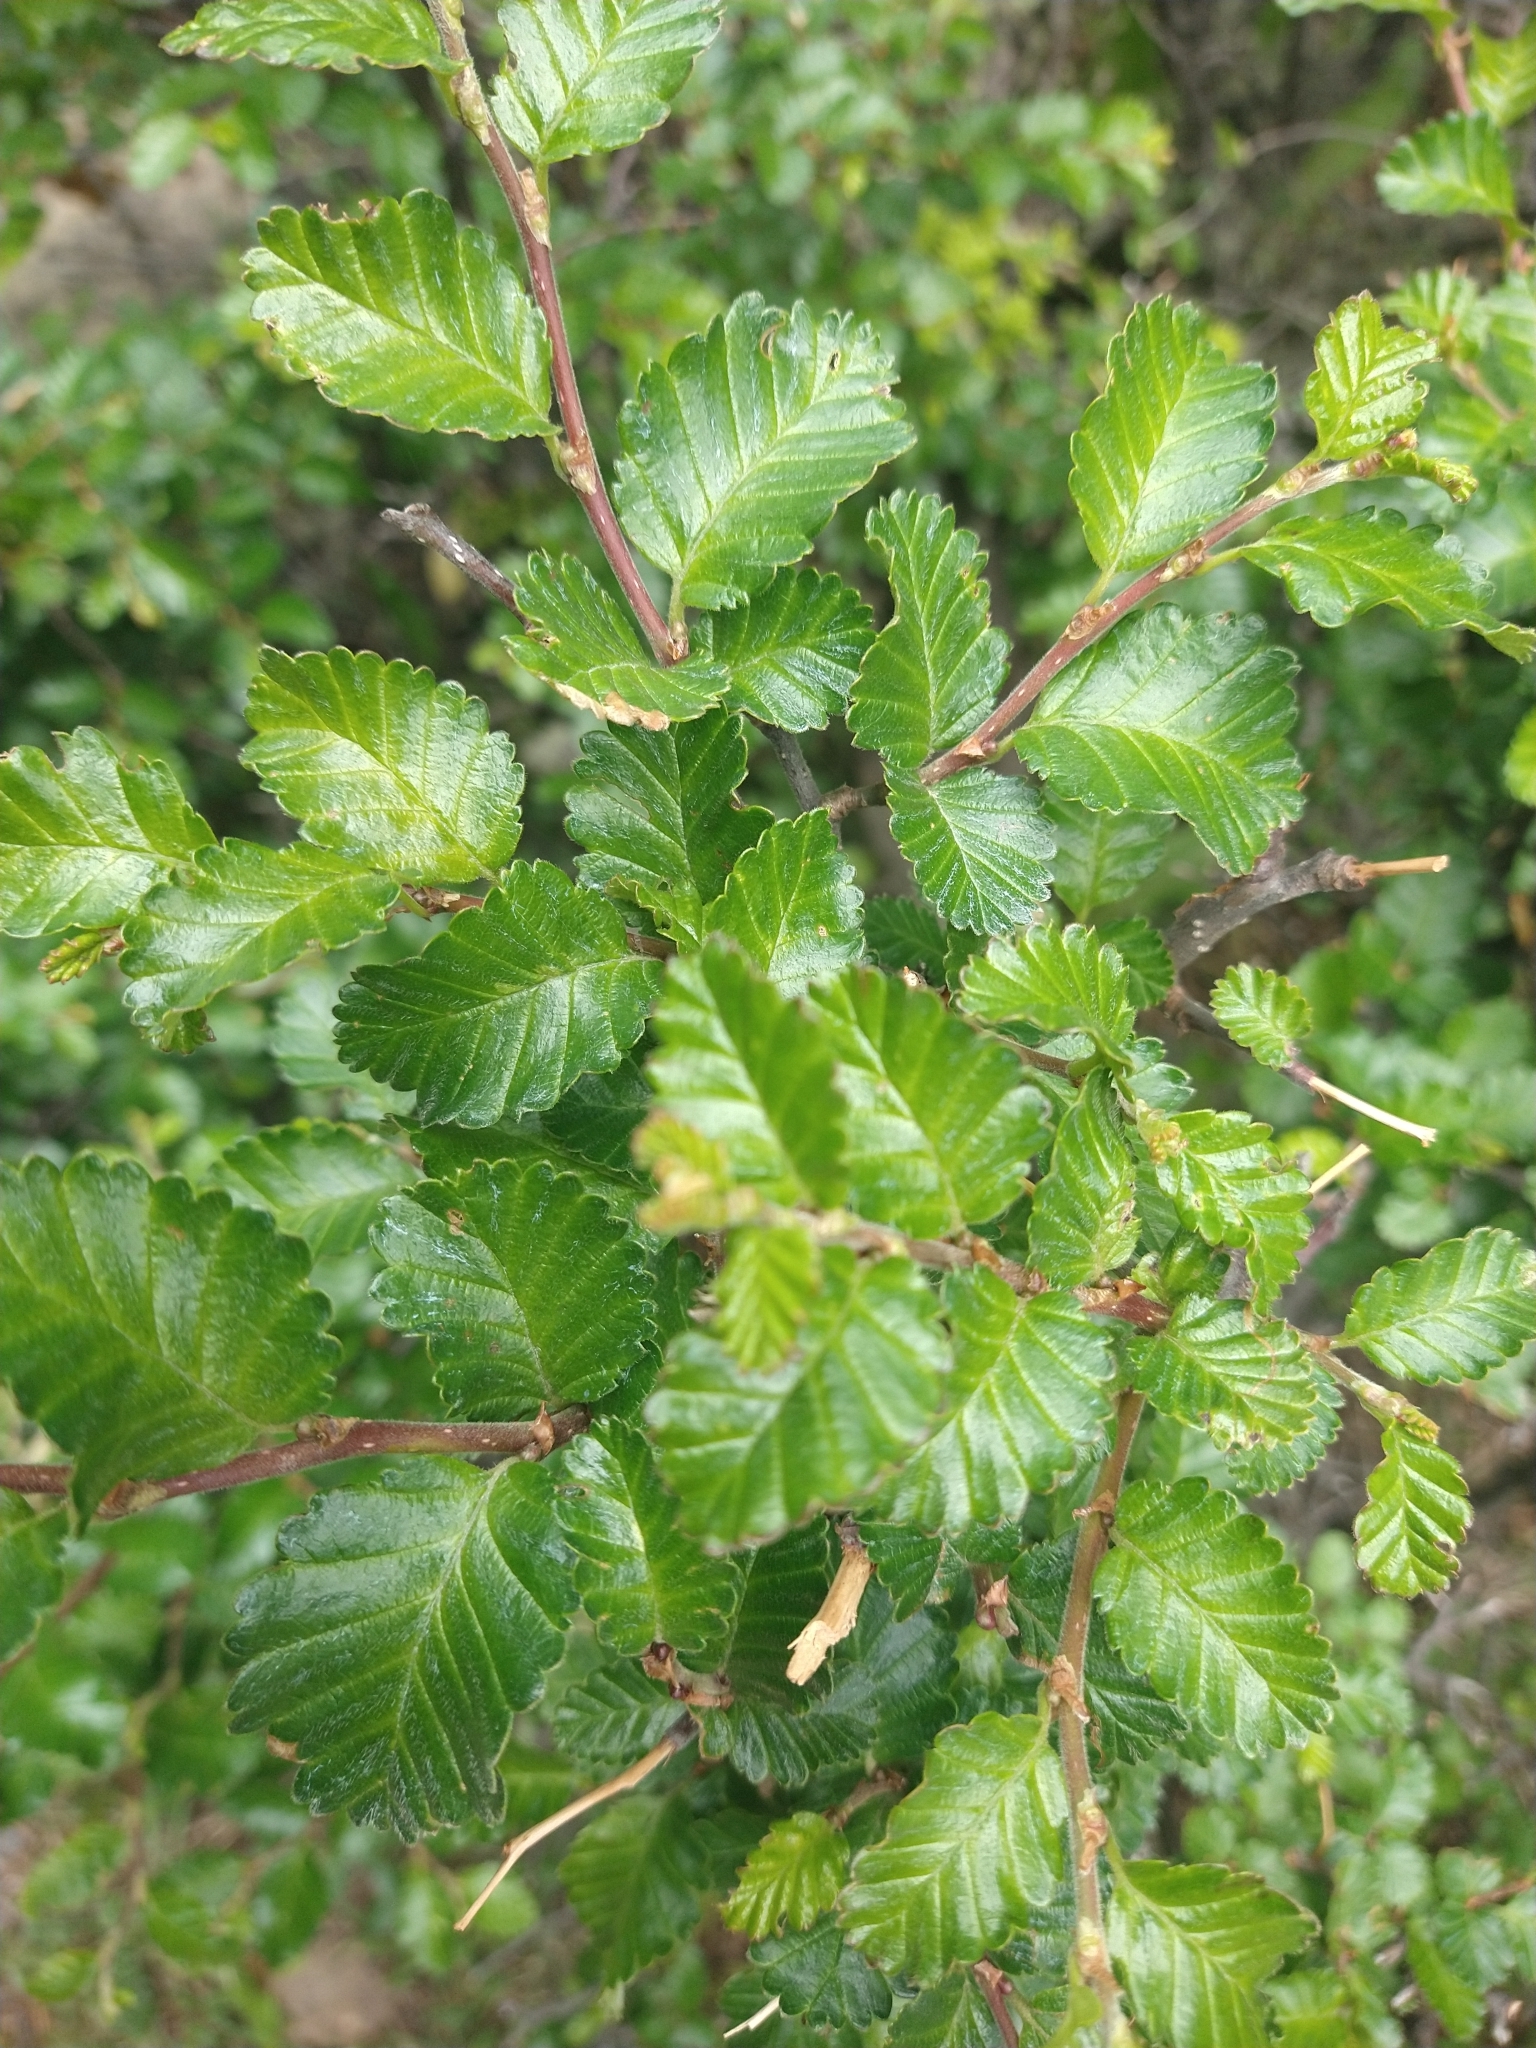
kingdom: Plantae
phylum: Tracheophyta
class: Magnoliopsida
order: Fagales
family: Nothofagaceae
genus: Nothofagus
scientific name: Nothofagus pumilio
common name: Lenga beech
